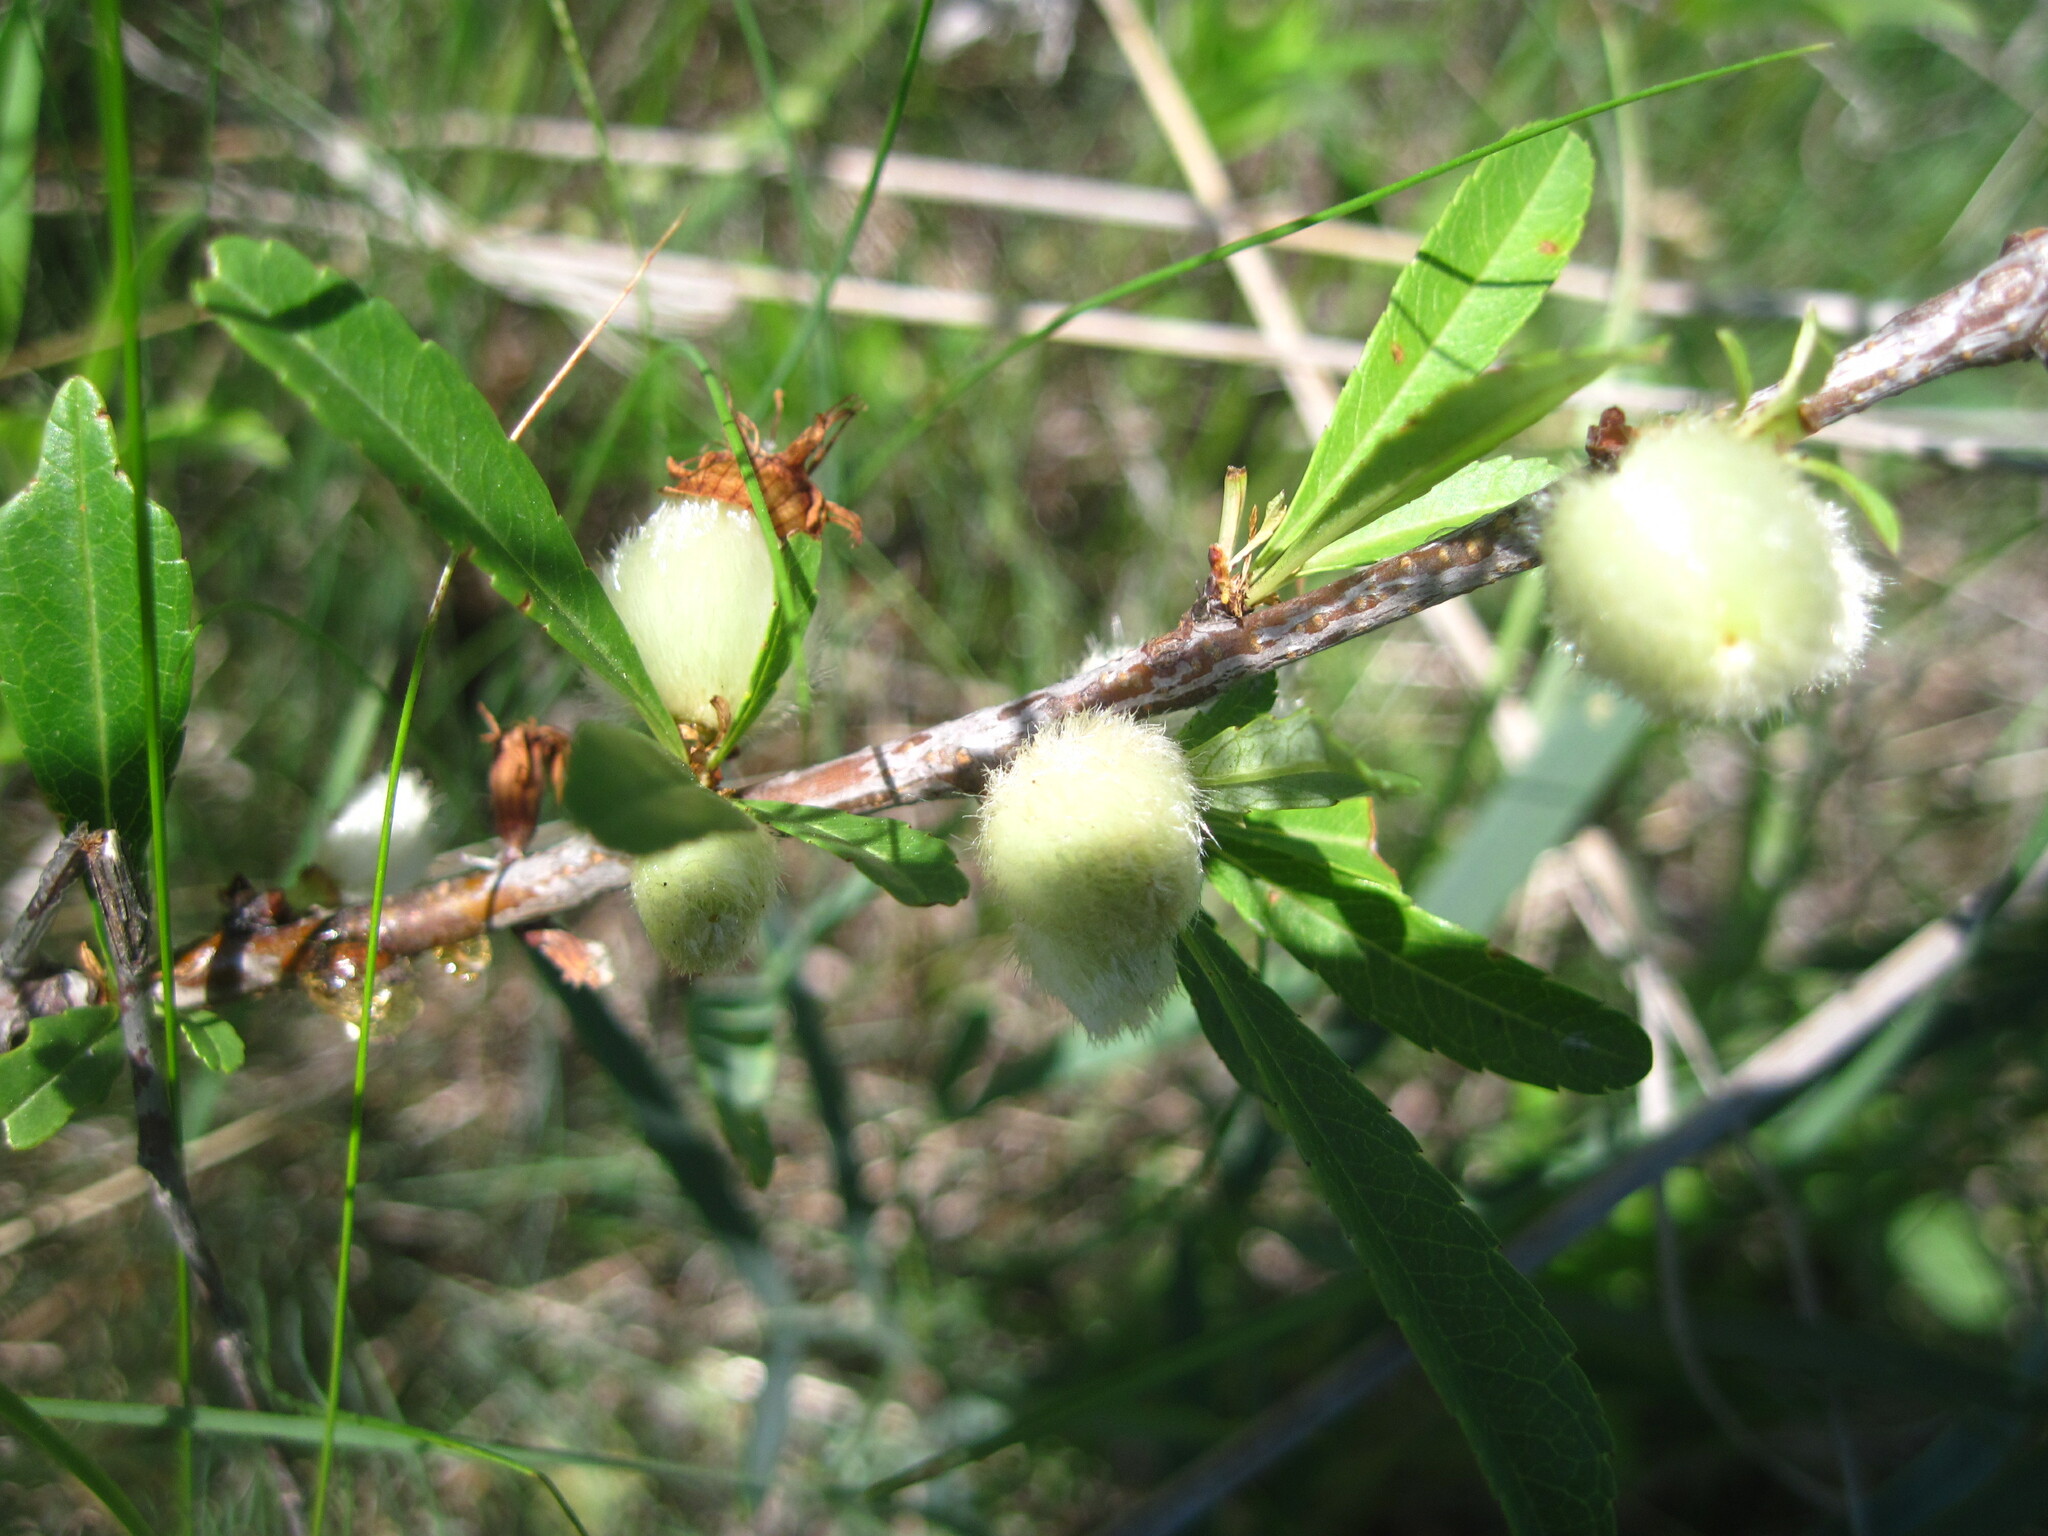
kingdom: Plantae
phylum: Tracheophyta
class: Magnoliopsida
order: Rosales
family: Rosaceae
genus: Prunus
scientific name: Prunus tenella
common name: Dwarf russian almond
